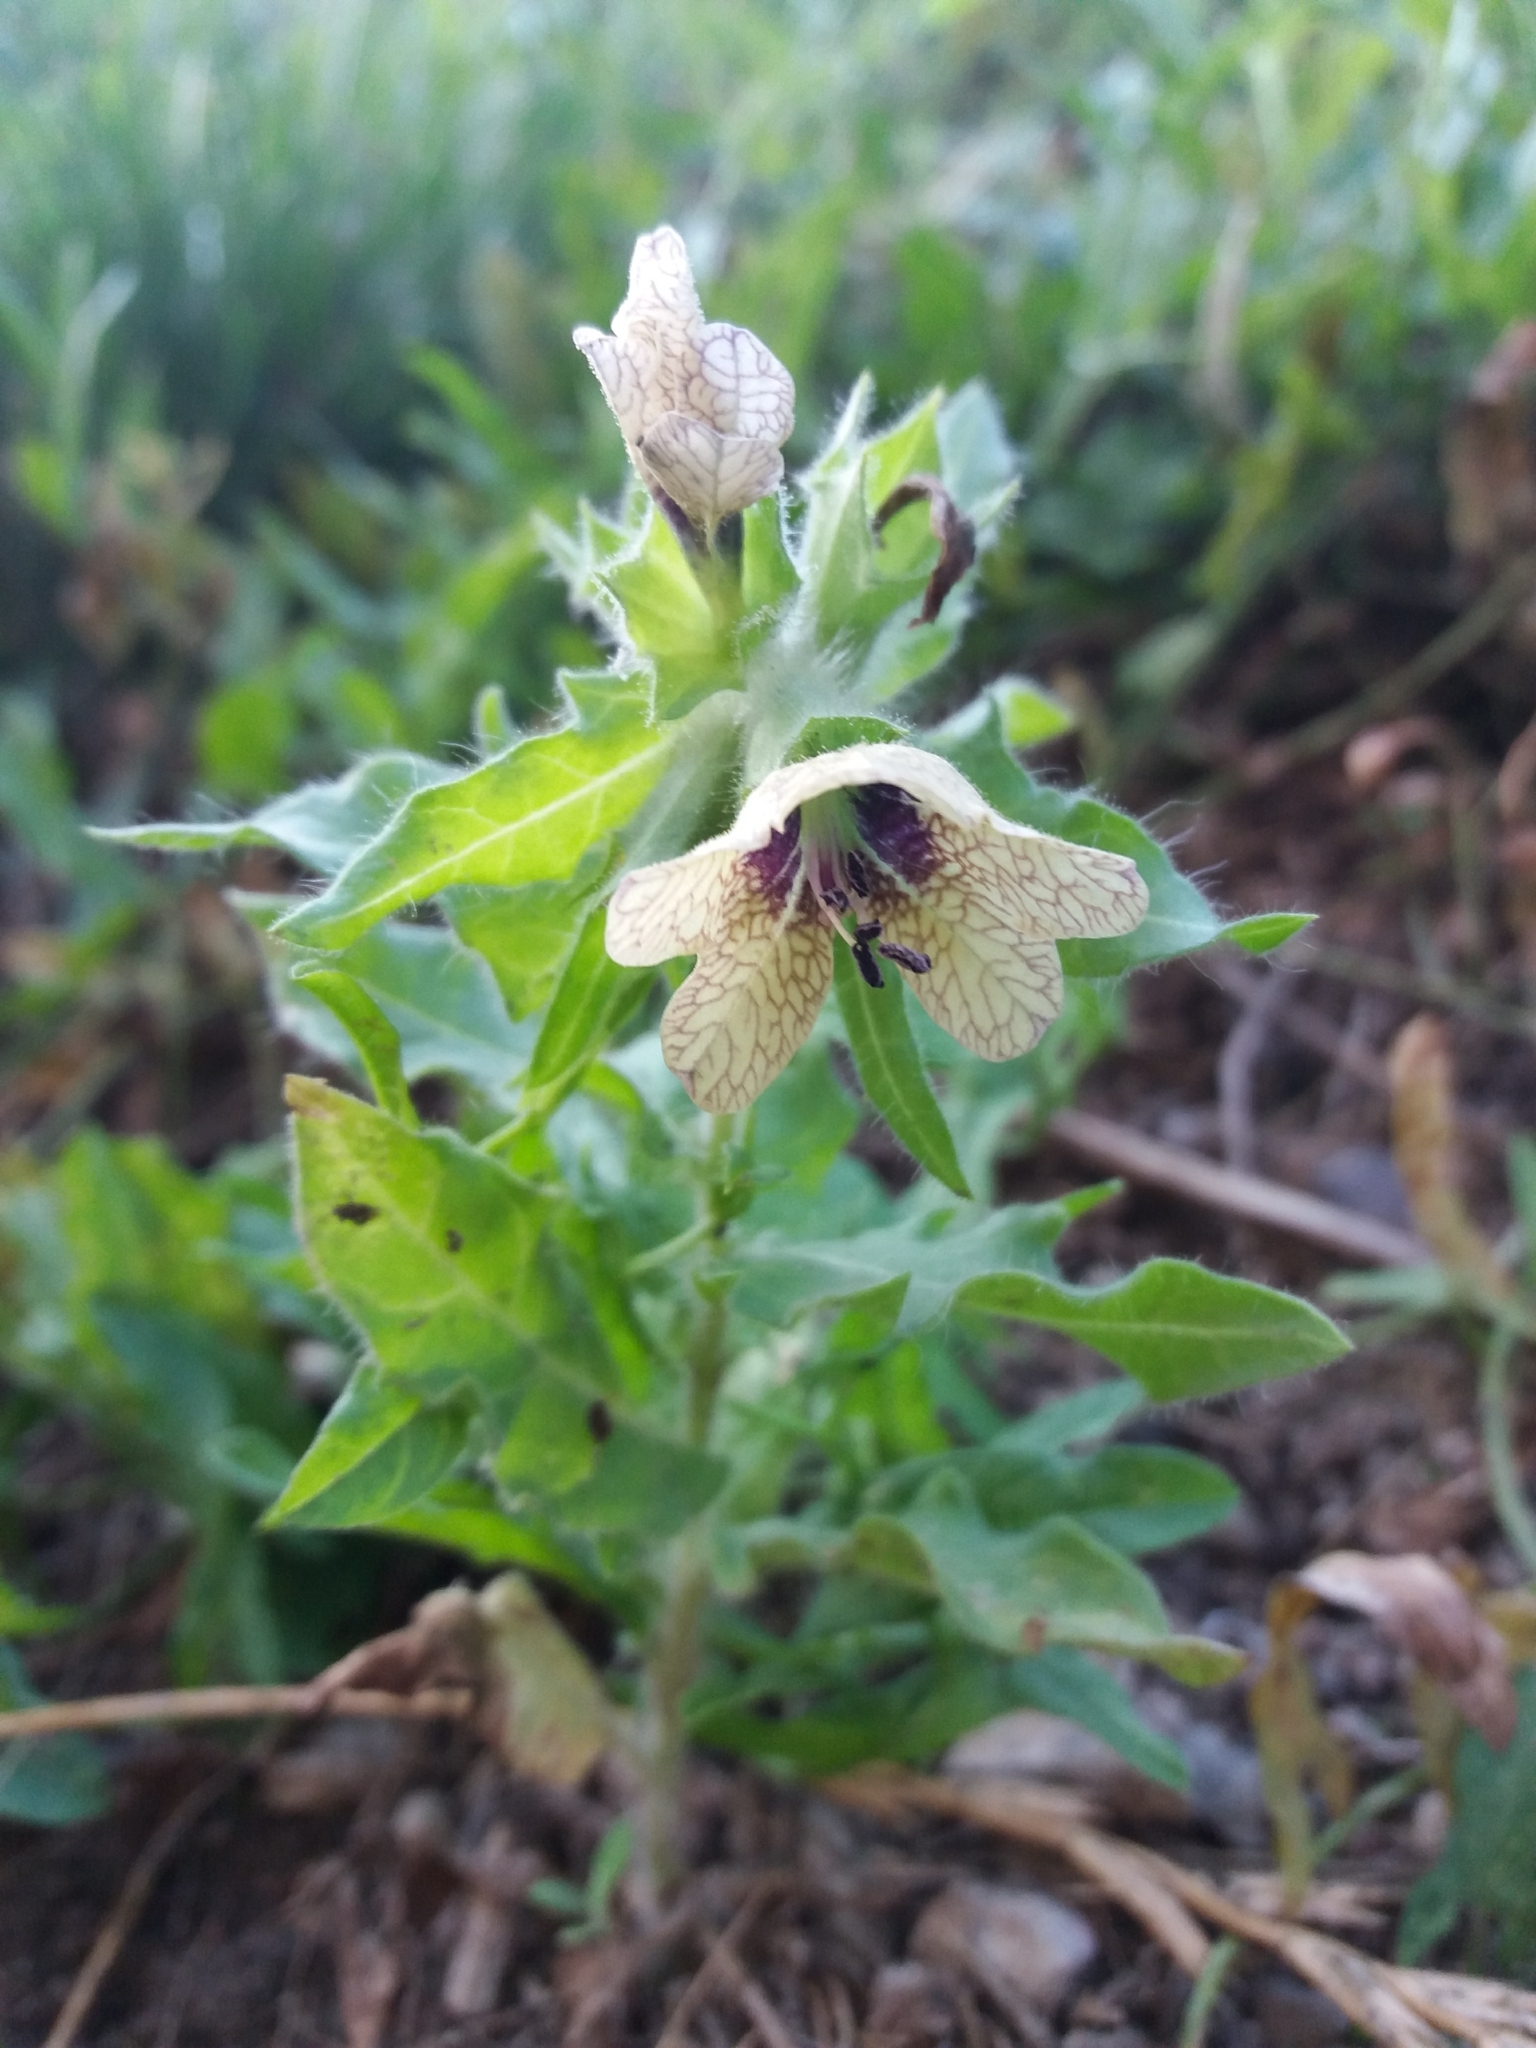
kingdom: Plantae
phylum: Tracheophyta
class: Magnoliopsida
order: Solanales
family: Solanaceae
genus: Hyoscyamus
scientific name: Hyoscyamus niger
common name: Henbane
